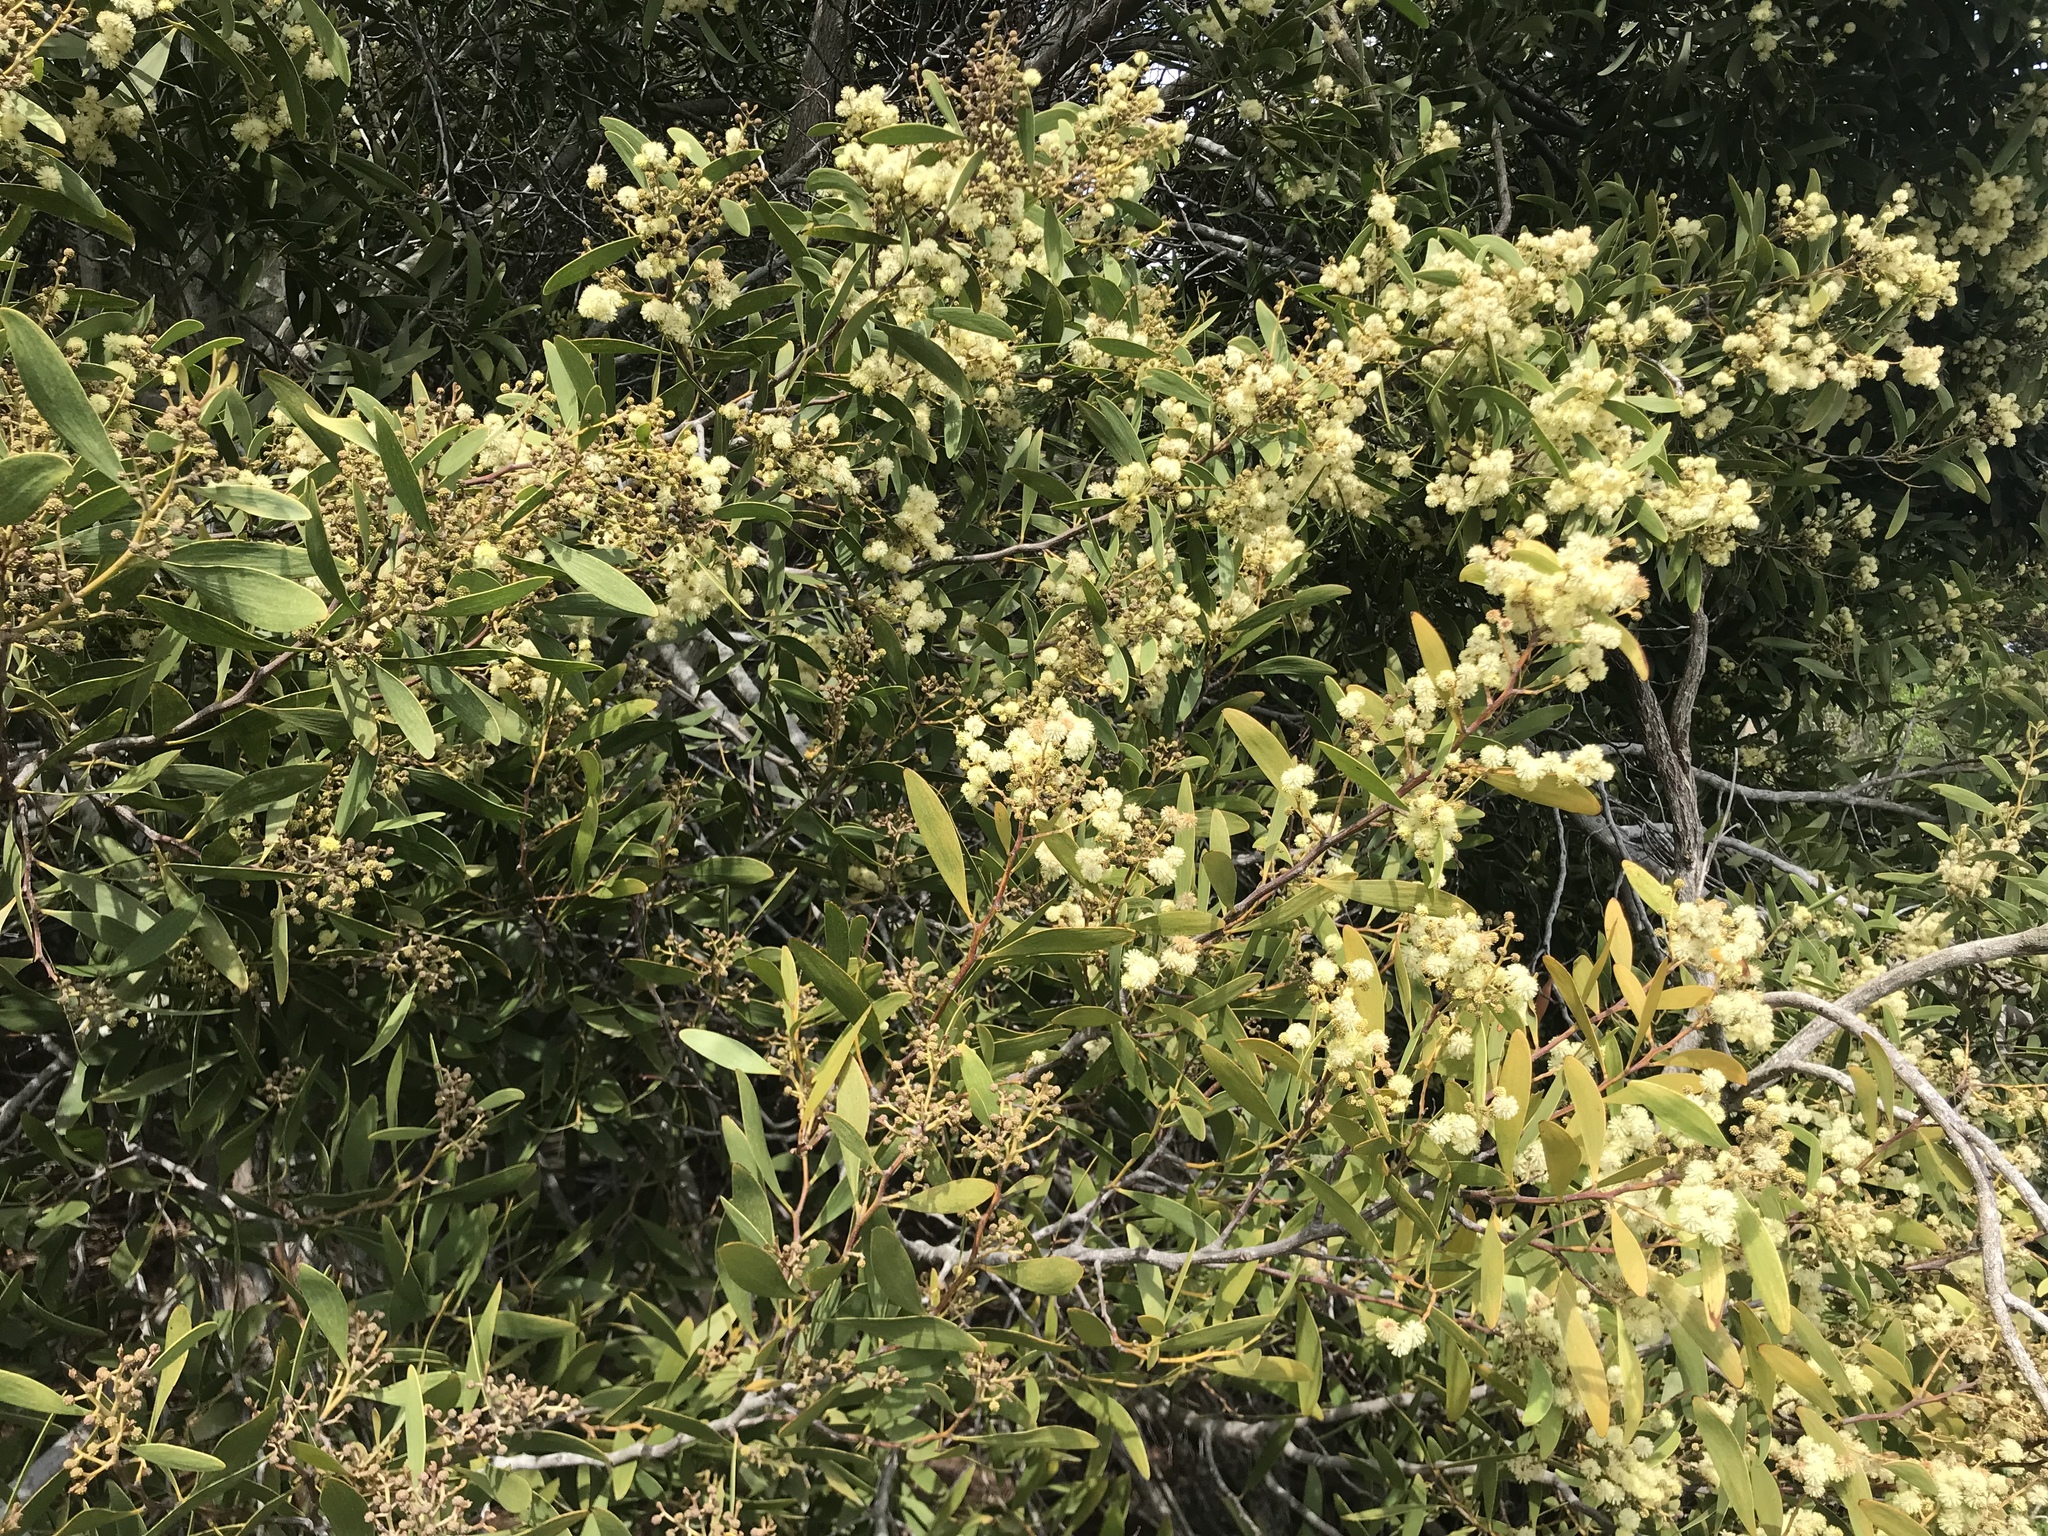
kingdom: Plantae
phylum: Tracheophyta
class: Magnoliopsida
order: Fabales
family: Fabaceae
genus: Acacia
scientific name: Acacia melanoxylon
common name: Blackwood
